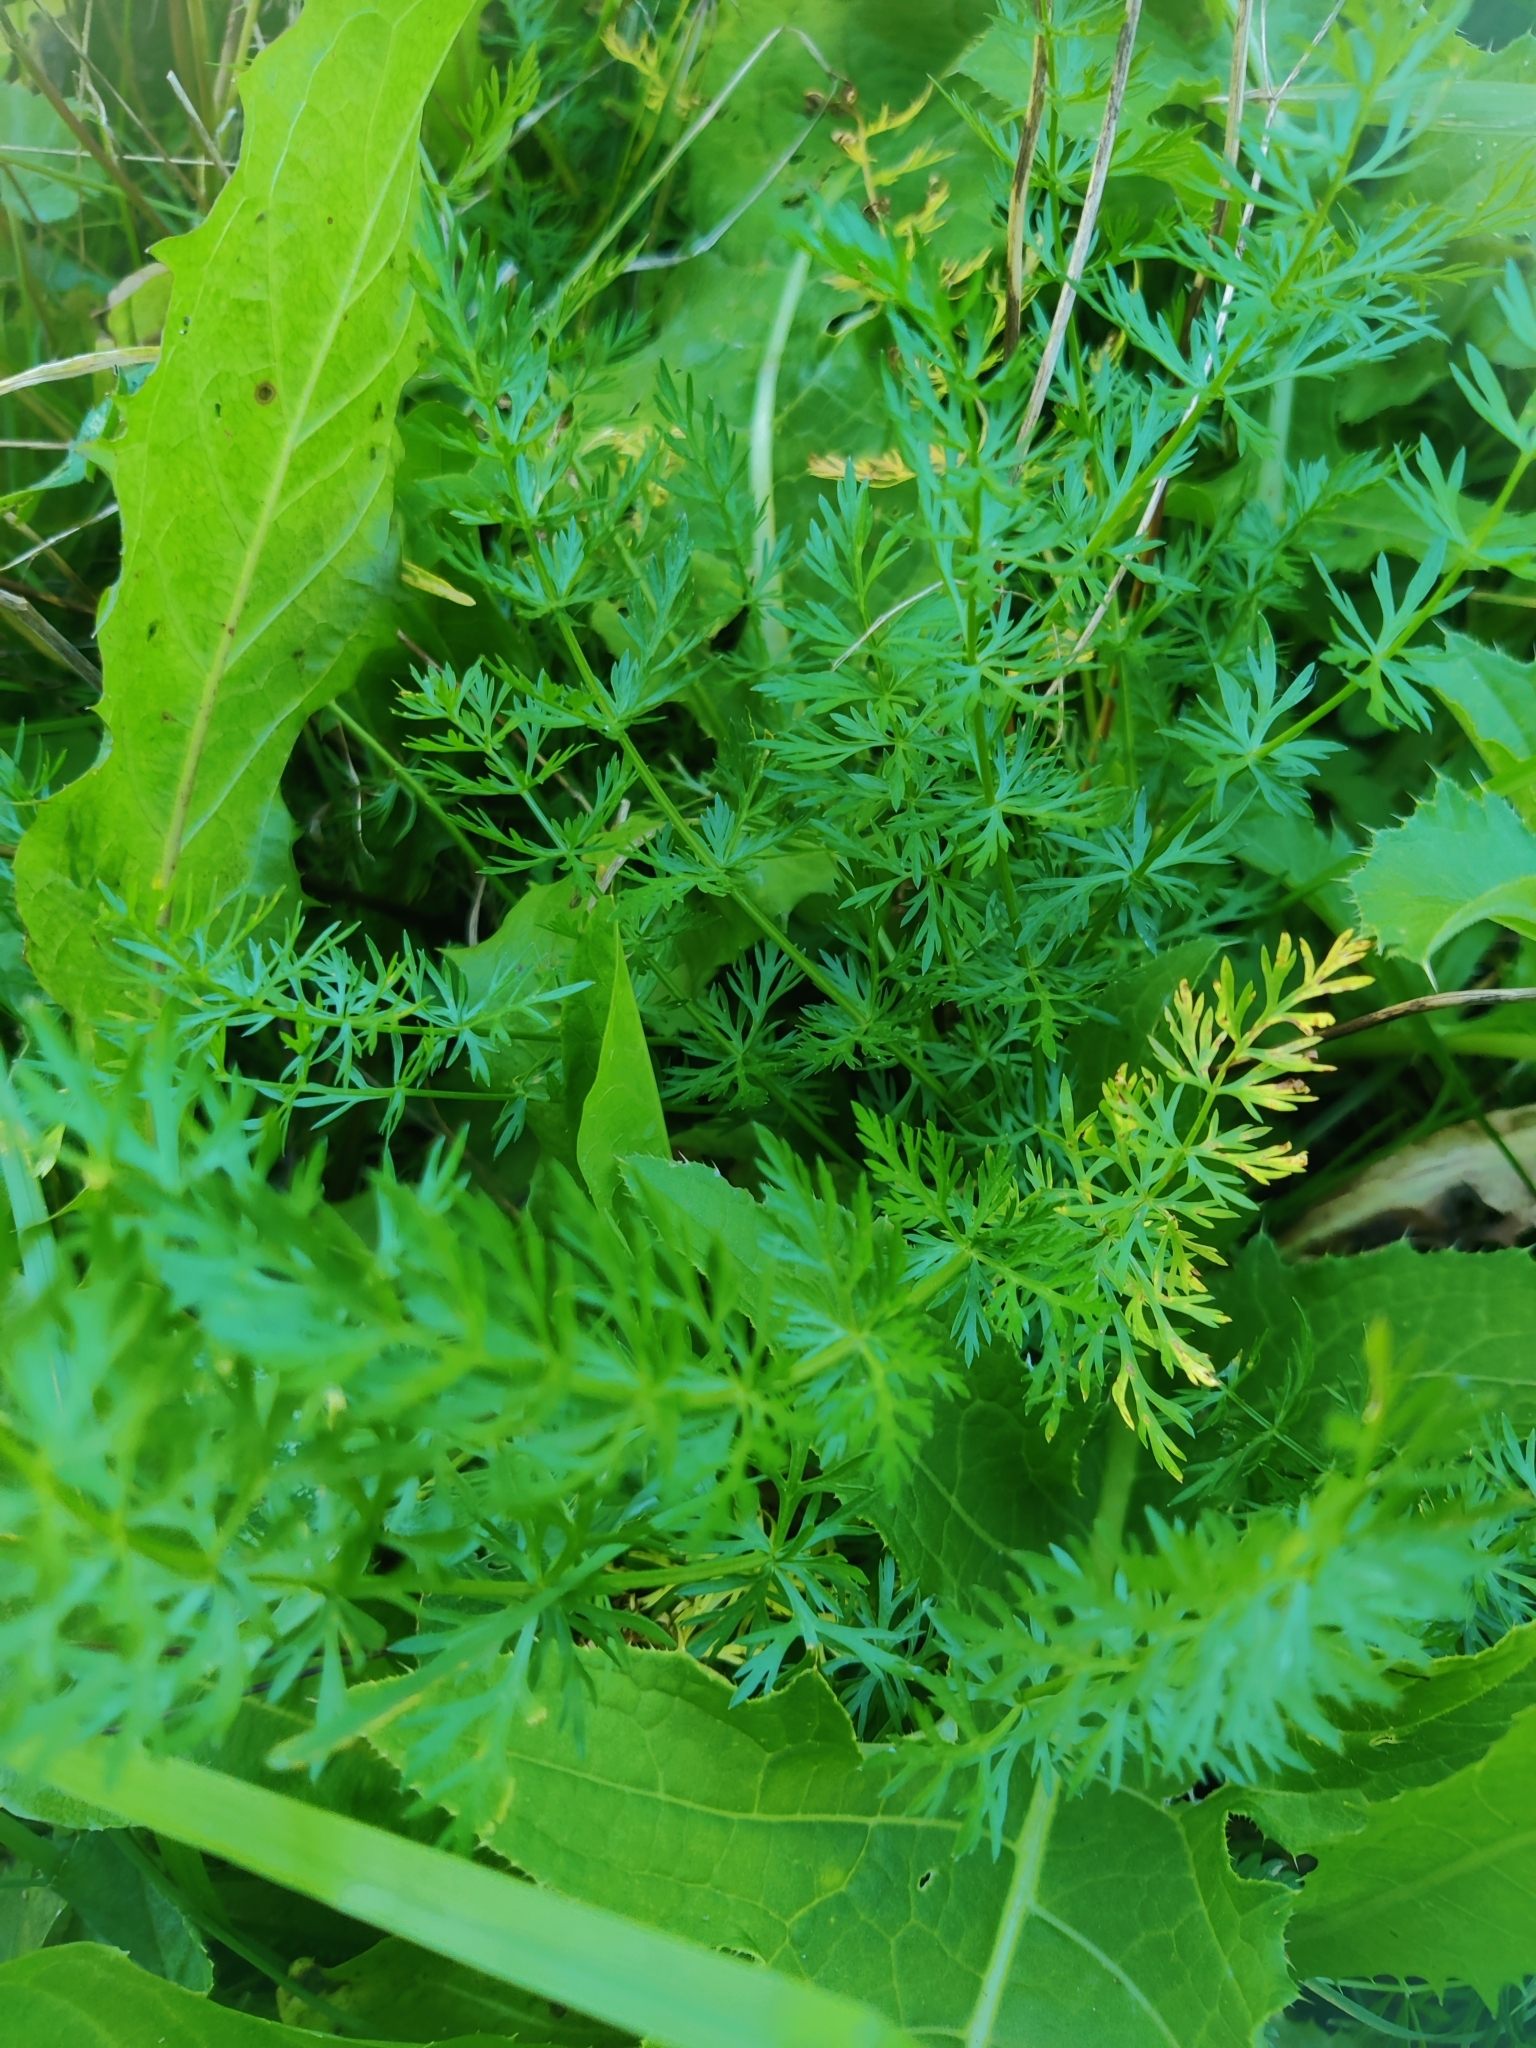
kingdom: Plantae
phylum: Tracheophyta
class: Magnoliopsida
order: Apiales
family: Apiaceae
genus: Carum
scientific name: Carum carvi
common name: Caraway
